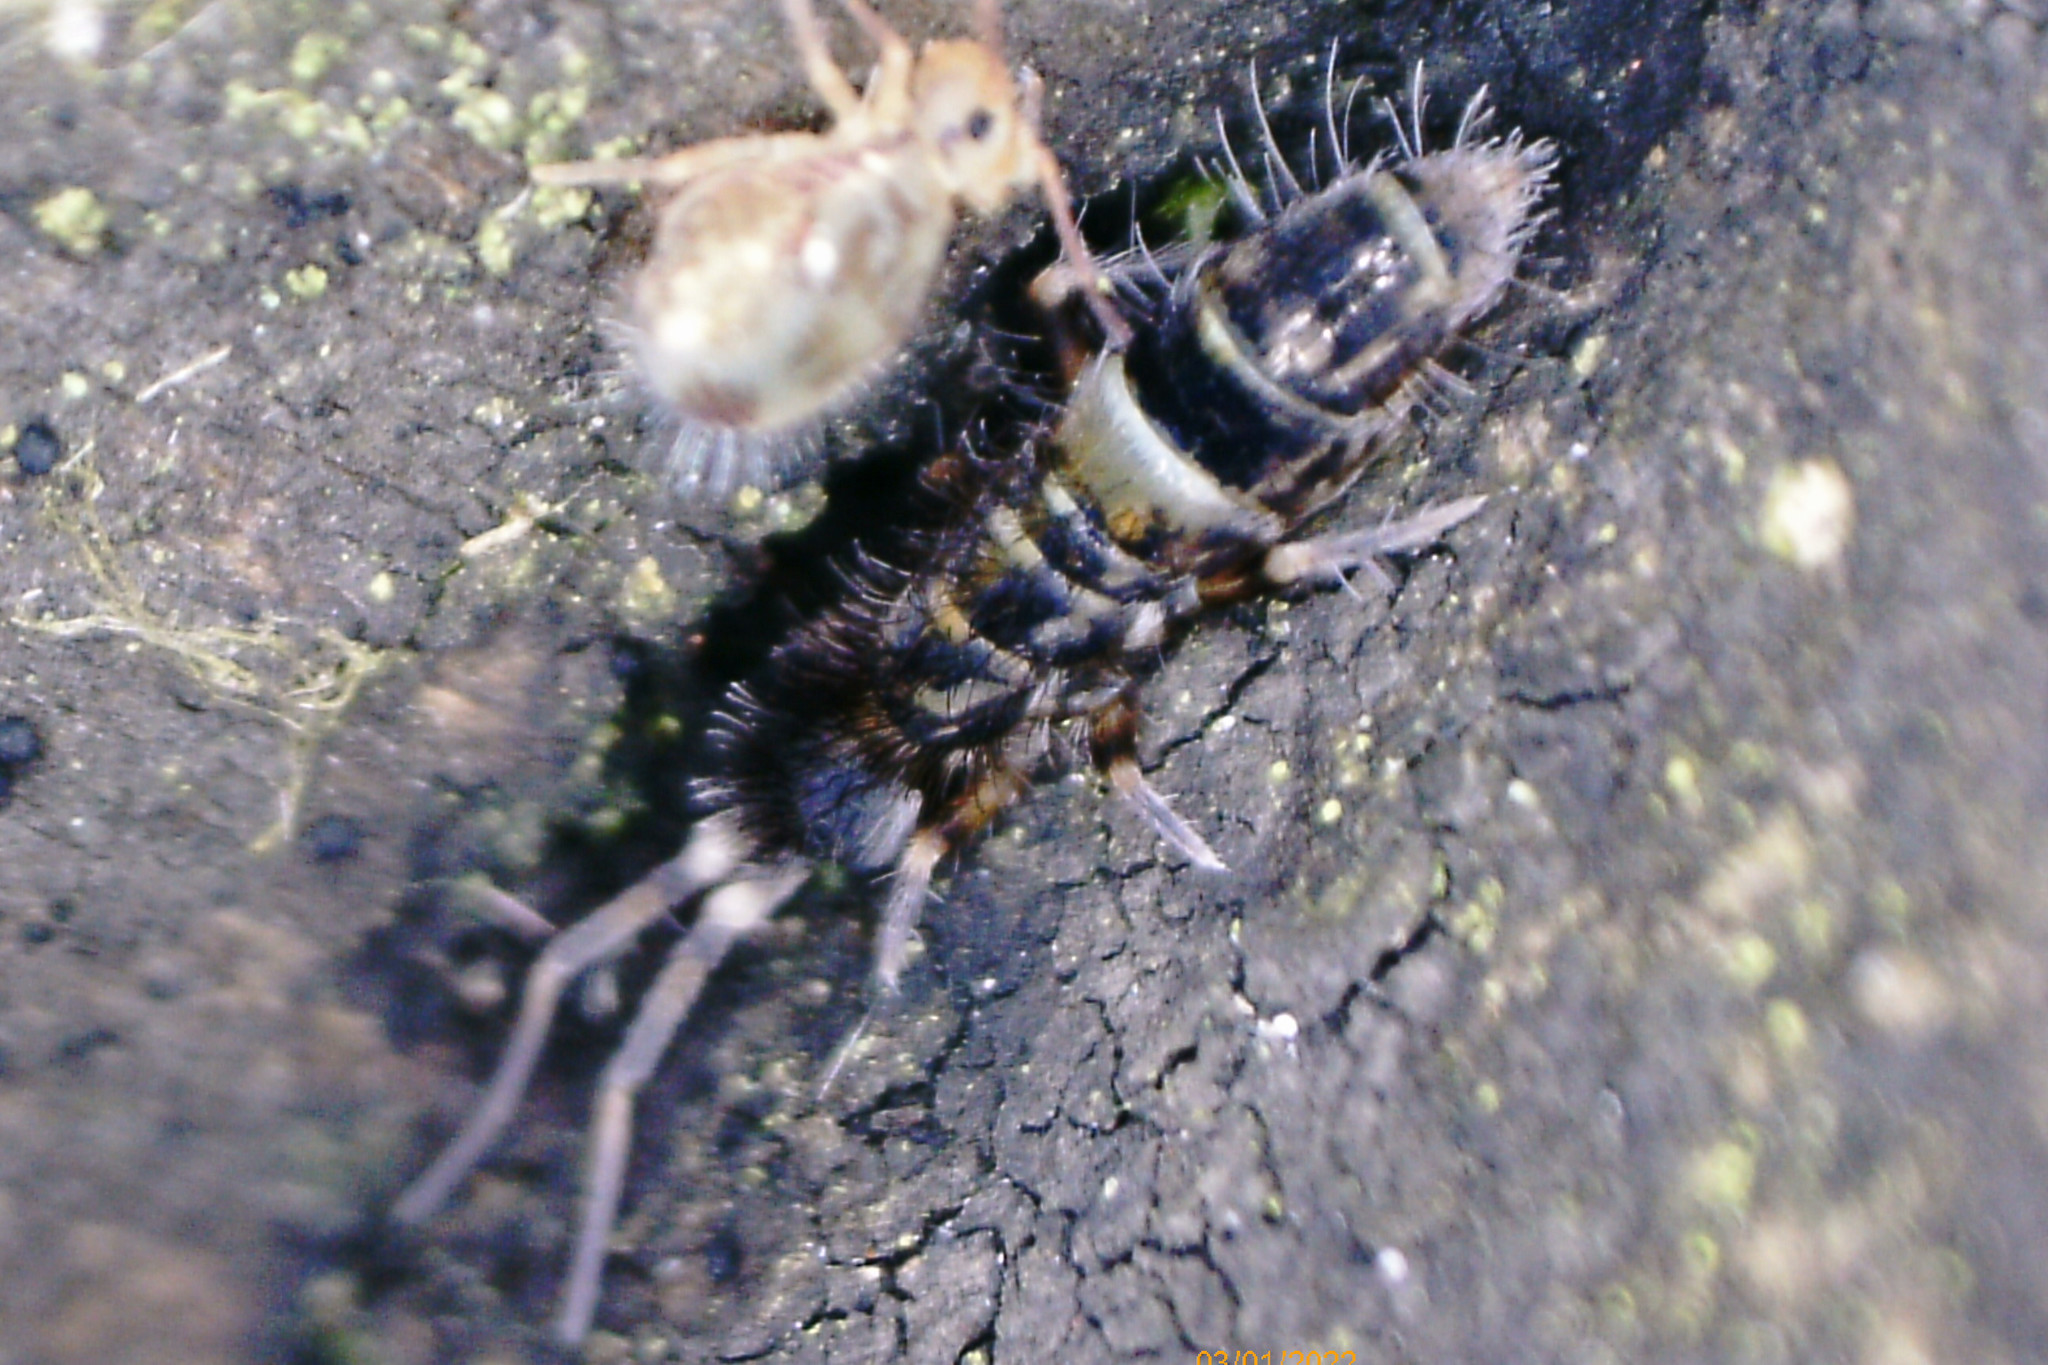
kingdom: Animalia
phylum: Arthropoda
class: Collembola
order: Entomobryomorpha
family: Orchesellidae
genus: Orchesella
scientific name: Orchesella cincta
